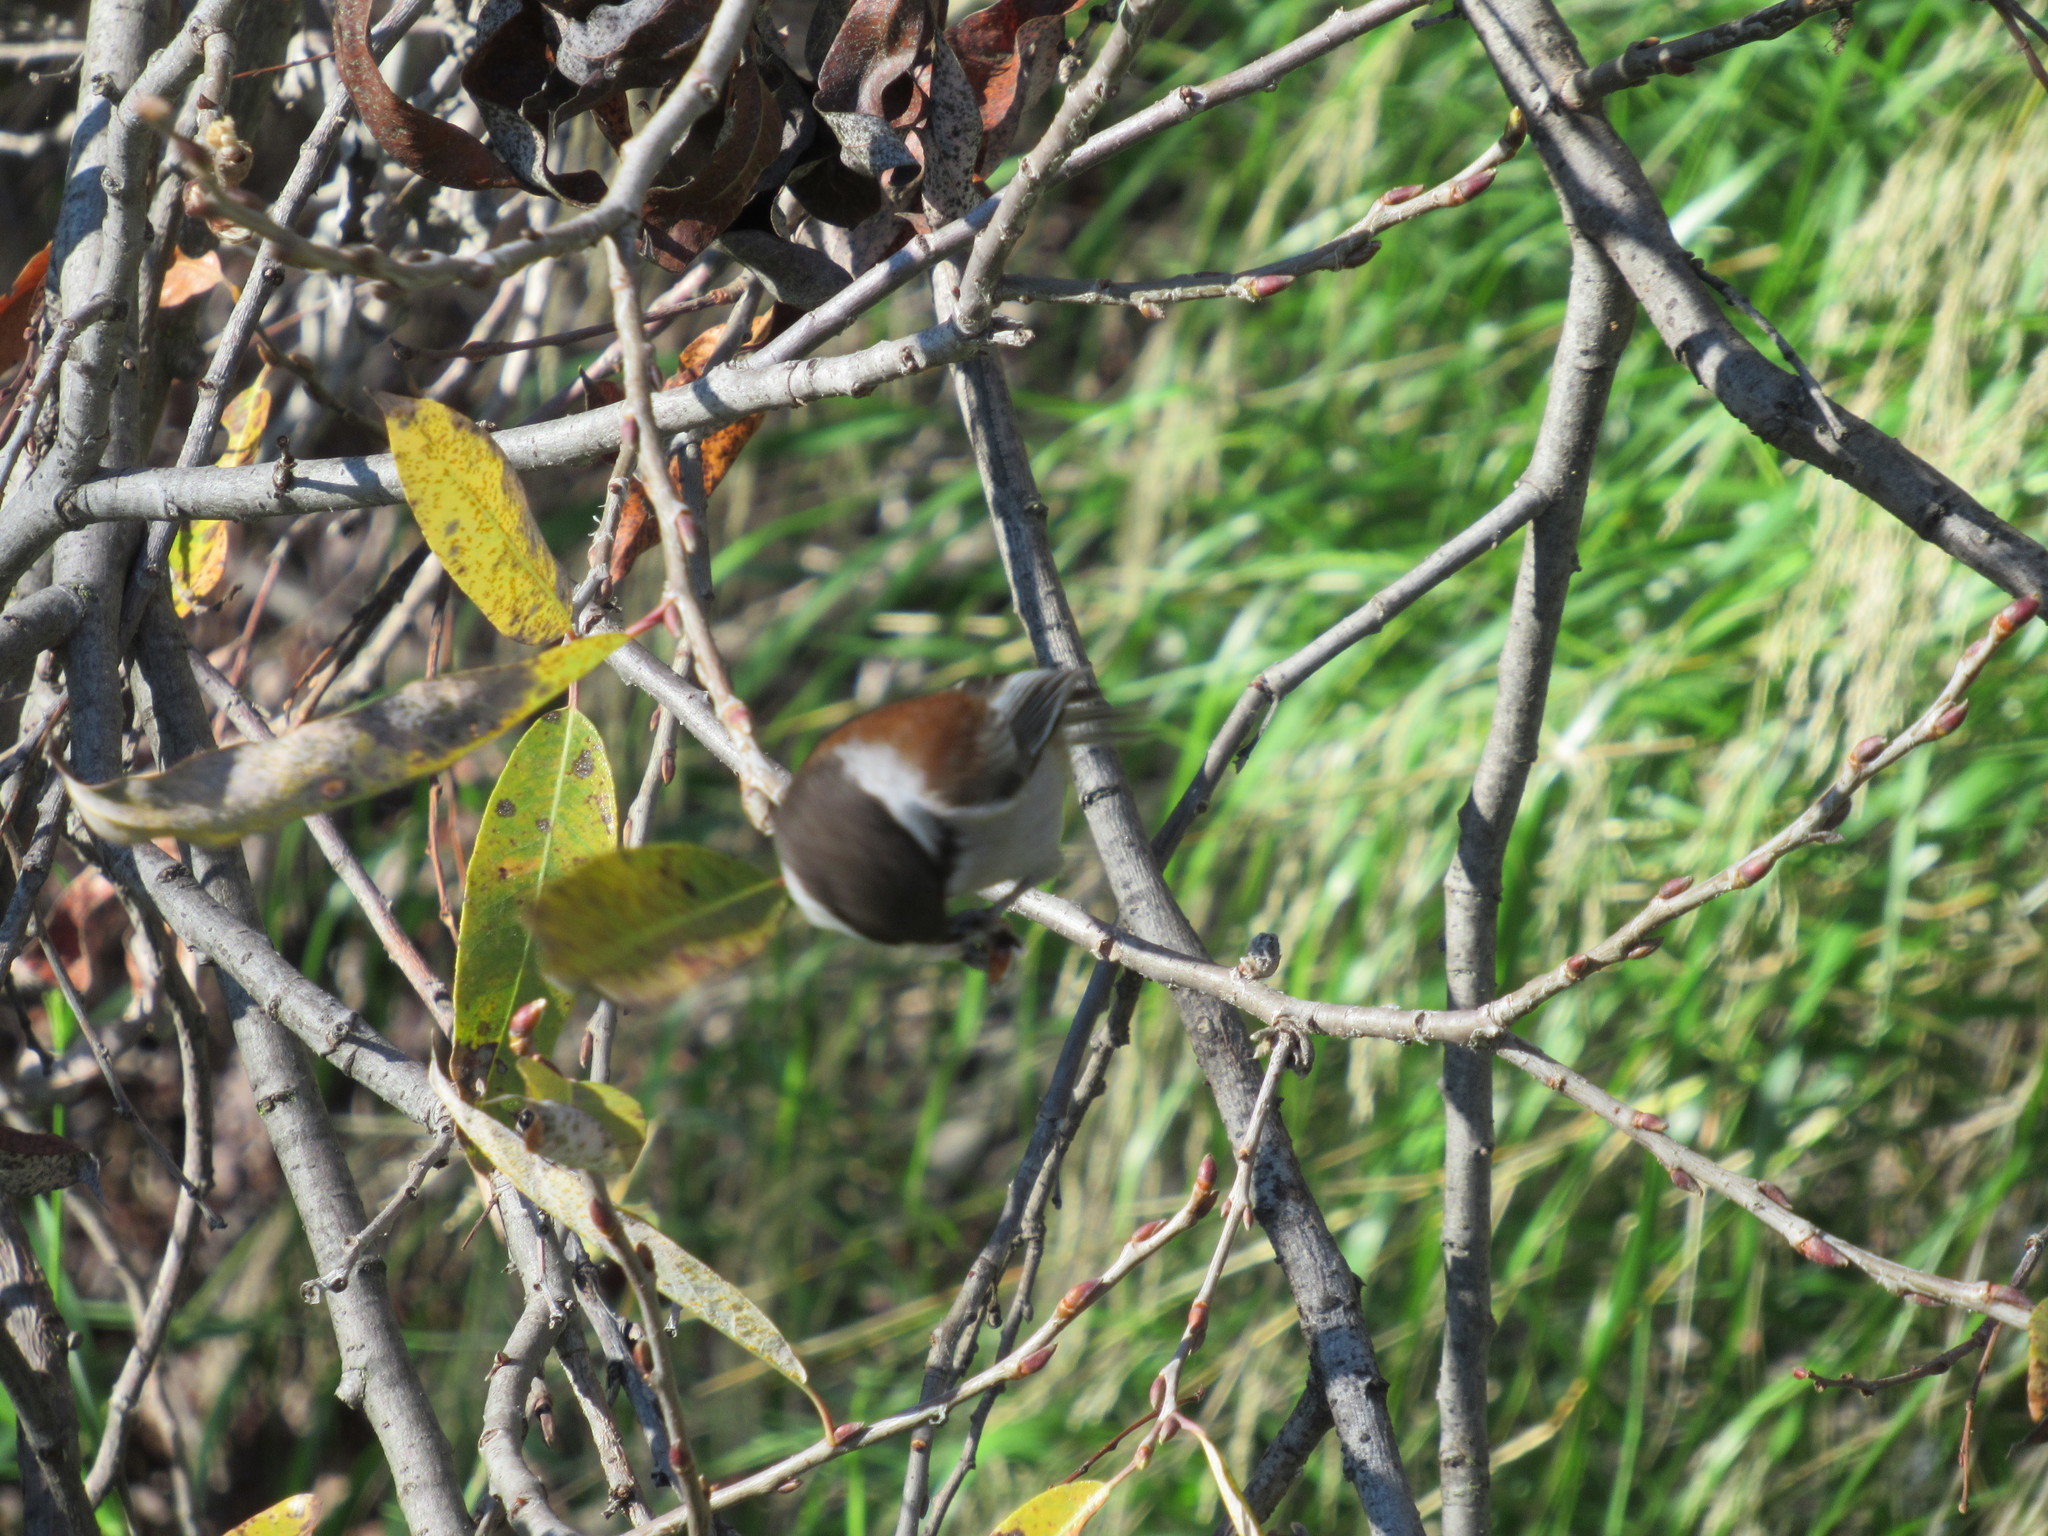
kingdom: Animalia
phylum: Chordata
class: Aves
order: Passeriformes
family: Paridae
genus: Poecile
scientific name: Poecile rufescens
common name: Chestnut-backed chickadee
